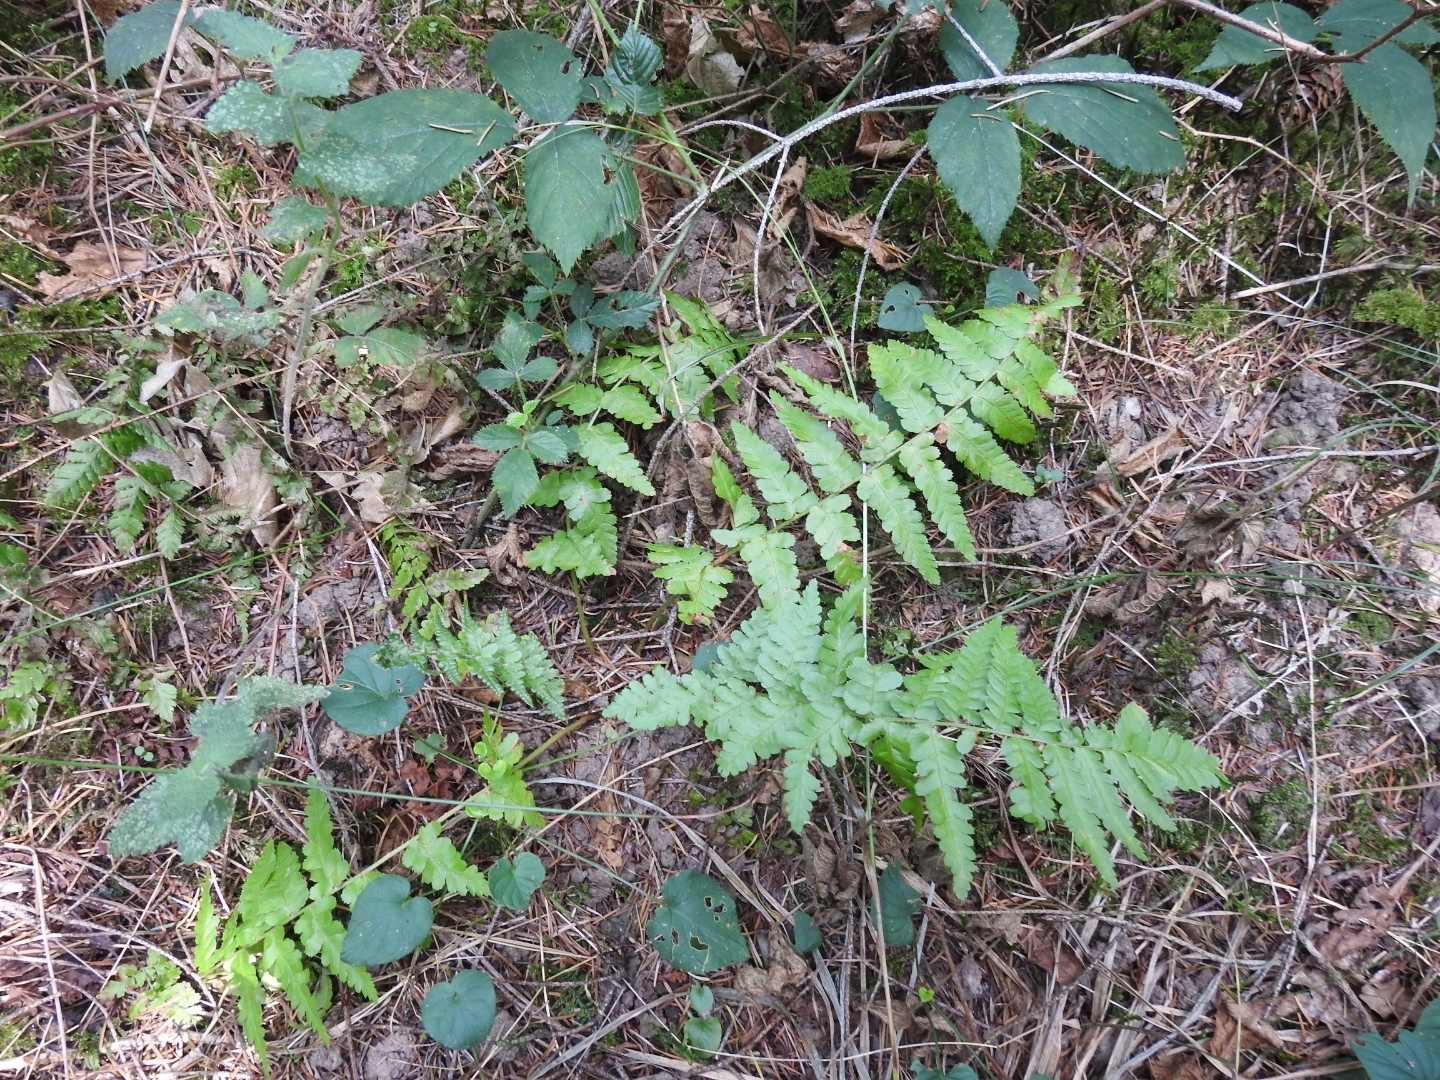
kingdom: Plantae
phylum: Tracheophyta
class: Polypodiopsida
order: Polypodiales
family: Dryopteridaceae
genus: Dryopteris
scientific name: Dryopteris filix-mas
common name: Male fern
